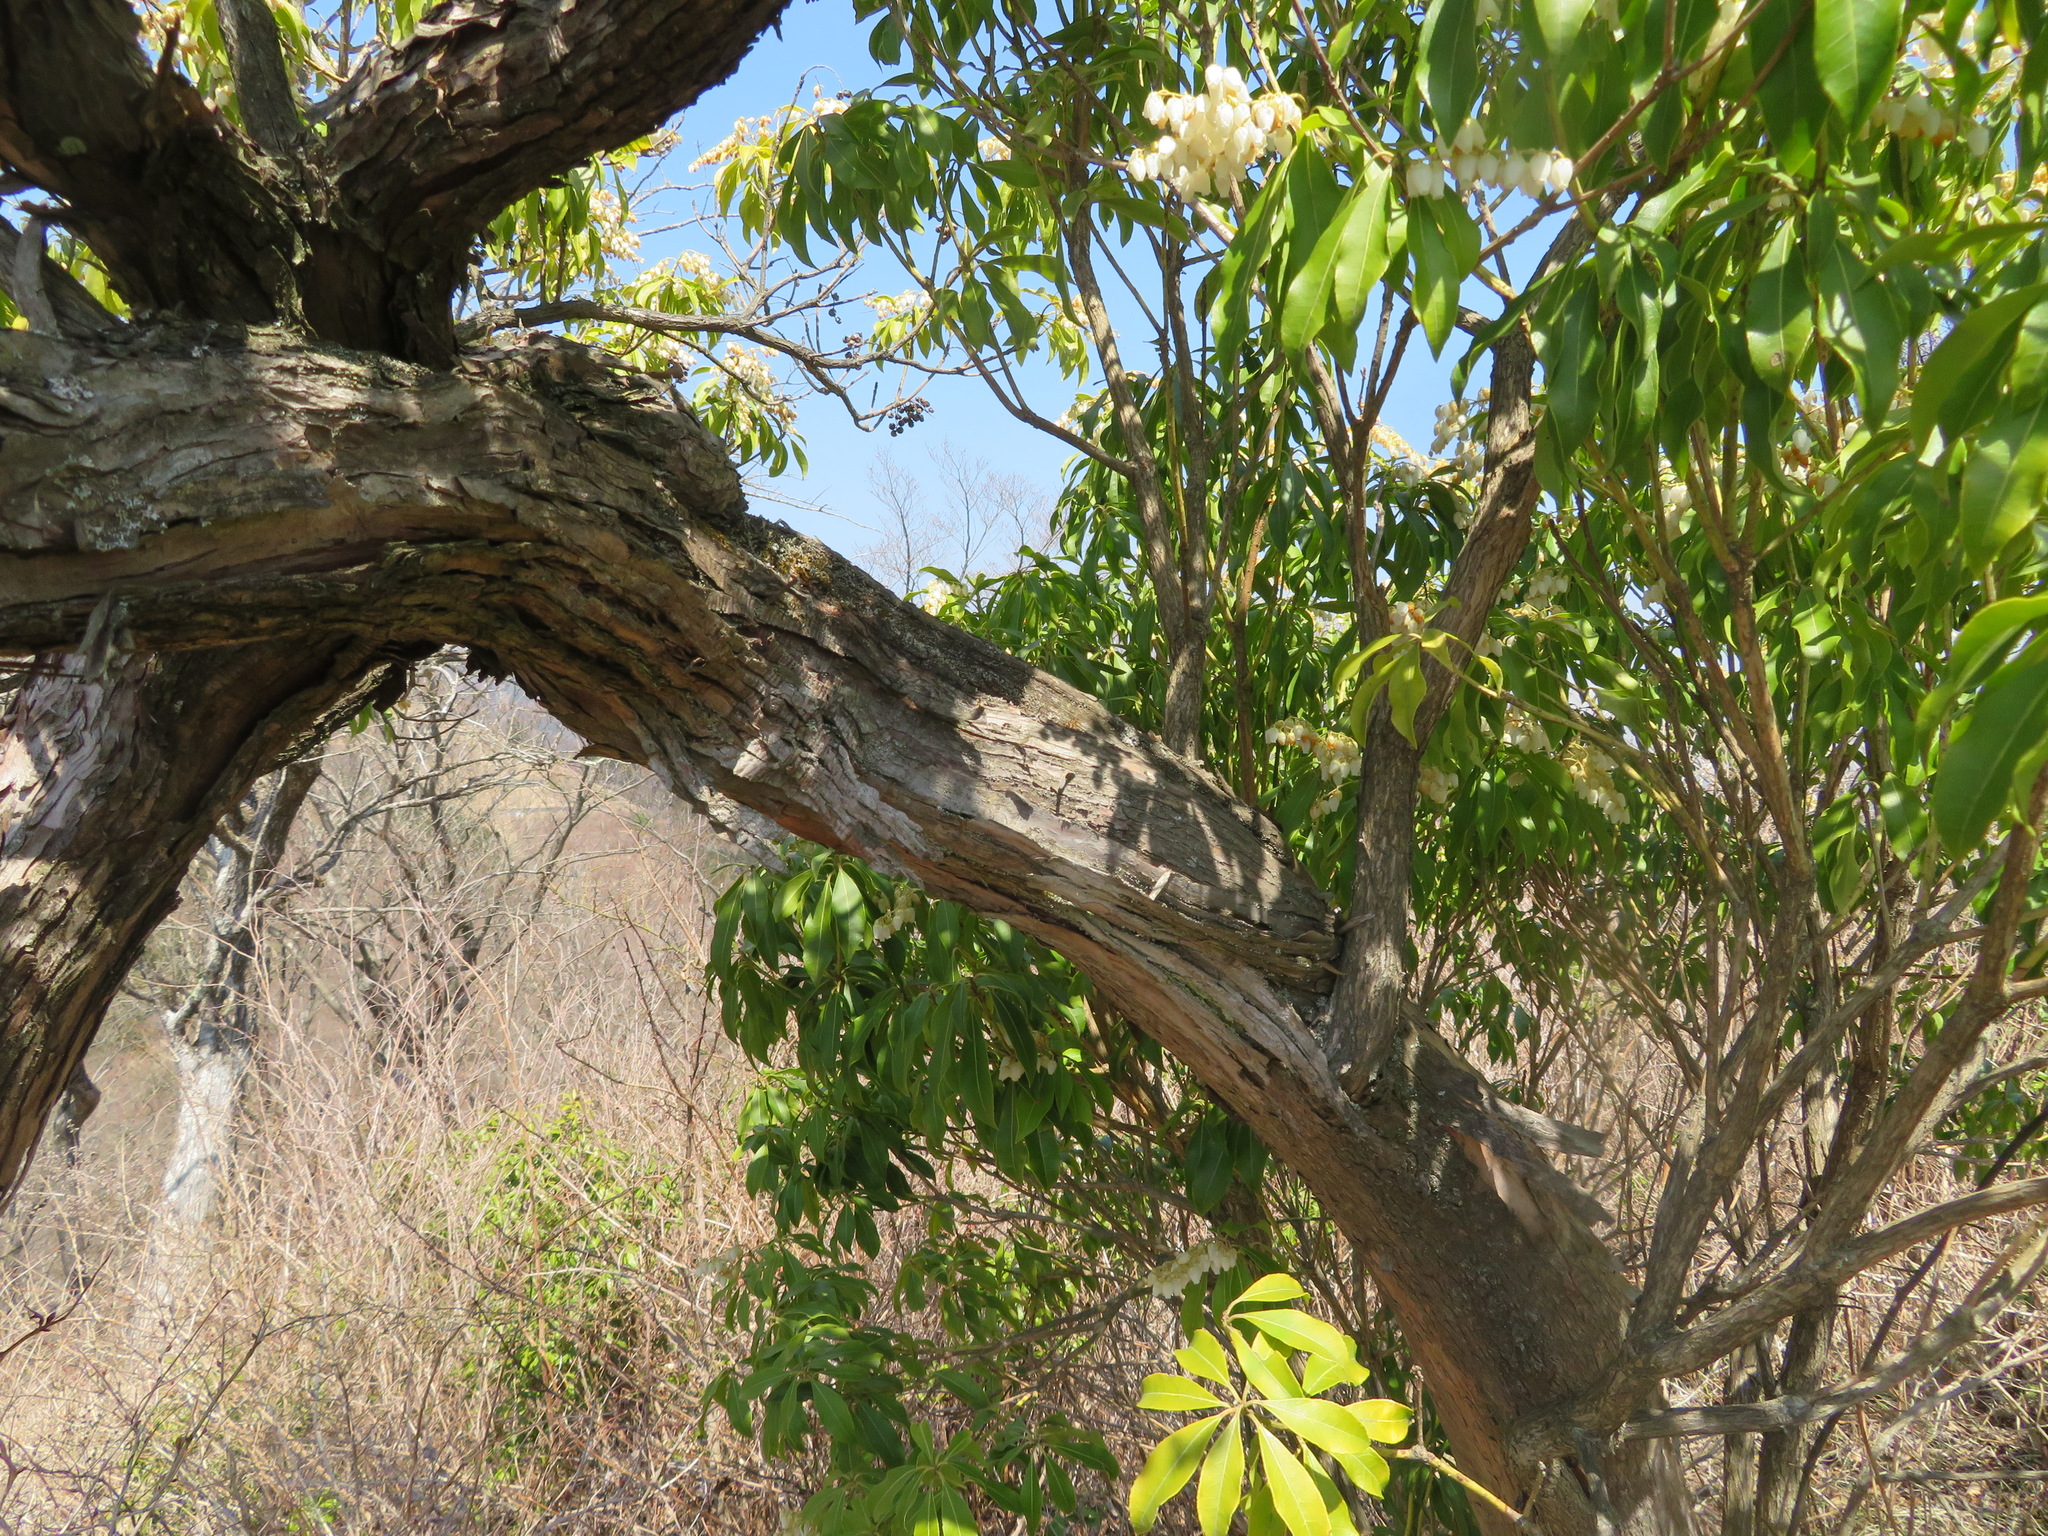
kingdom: Plantae
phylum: Tracheophyta
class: Magnoliopsida
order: Ericales
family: Ericaceae
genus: Pieris
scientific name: Pieris japonica
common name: Japanese pieris
